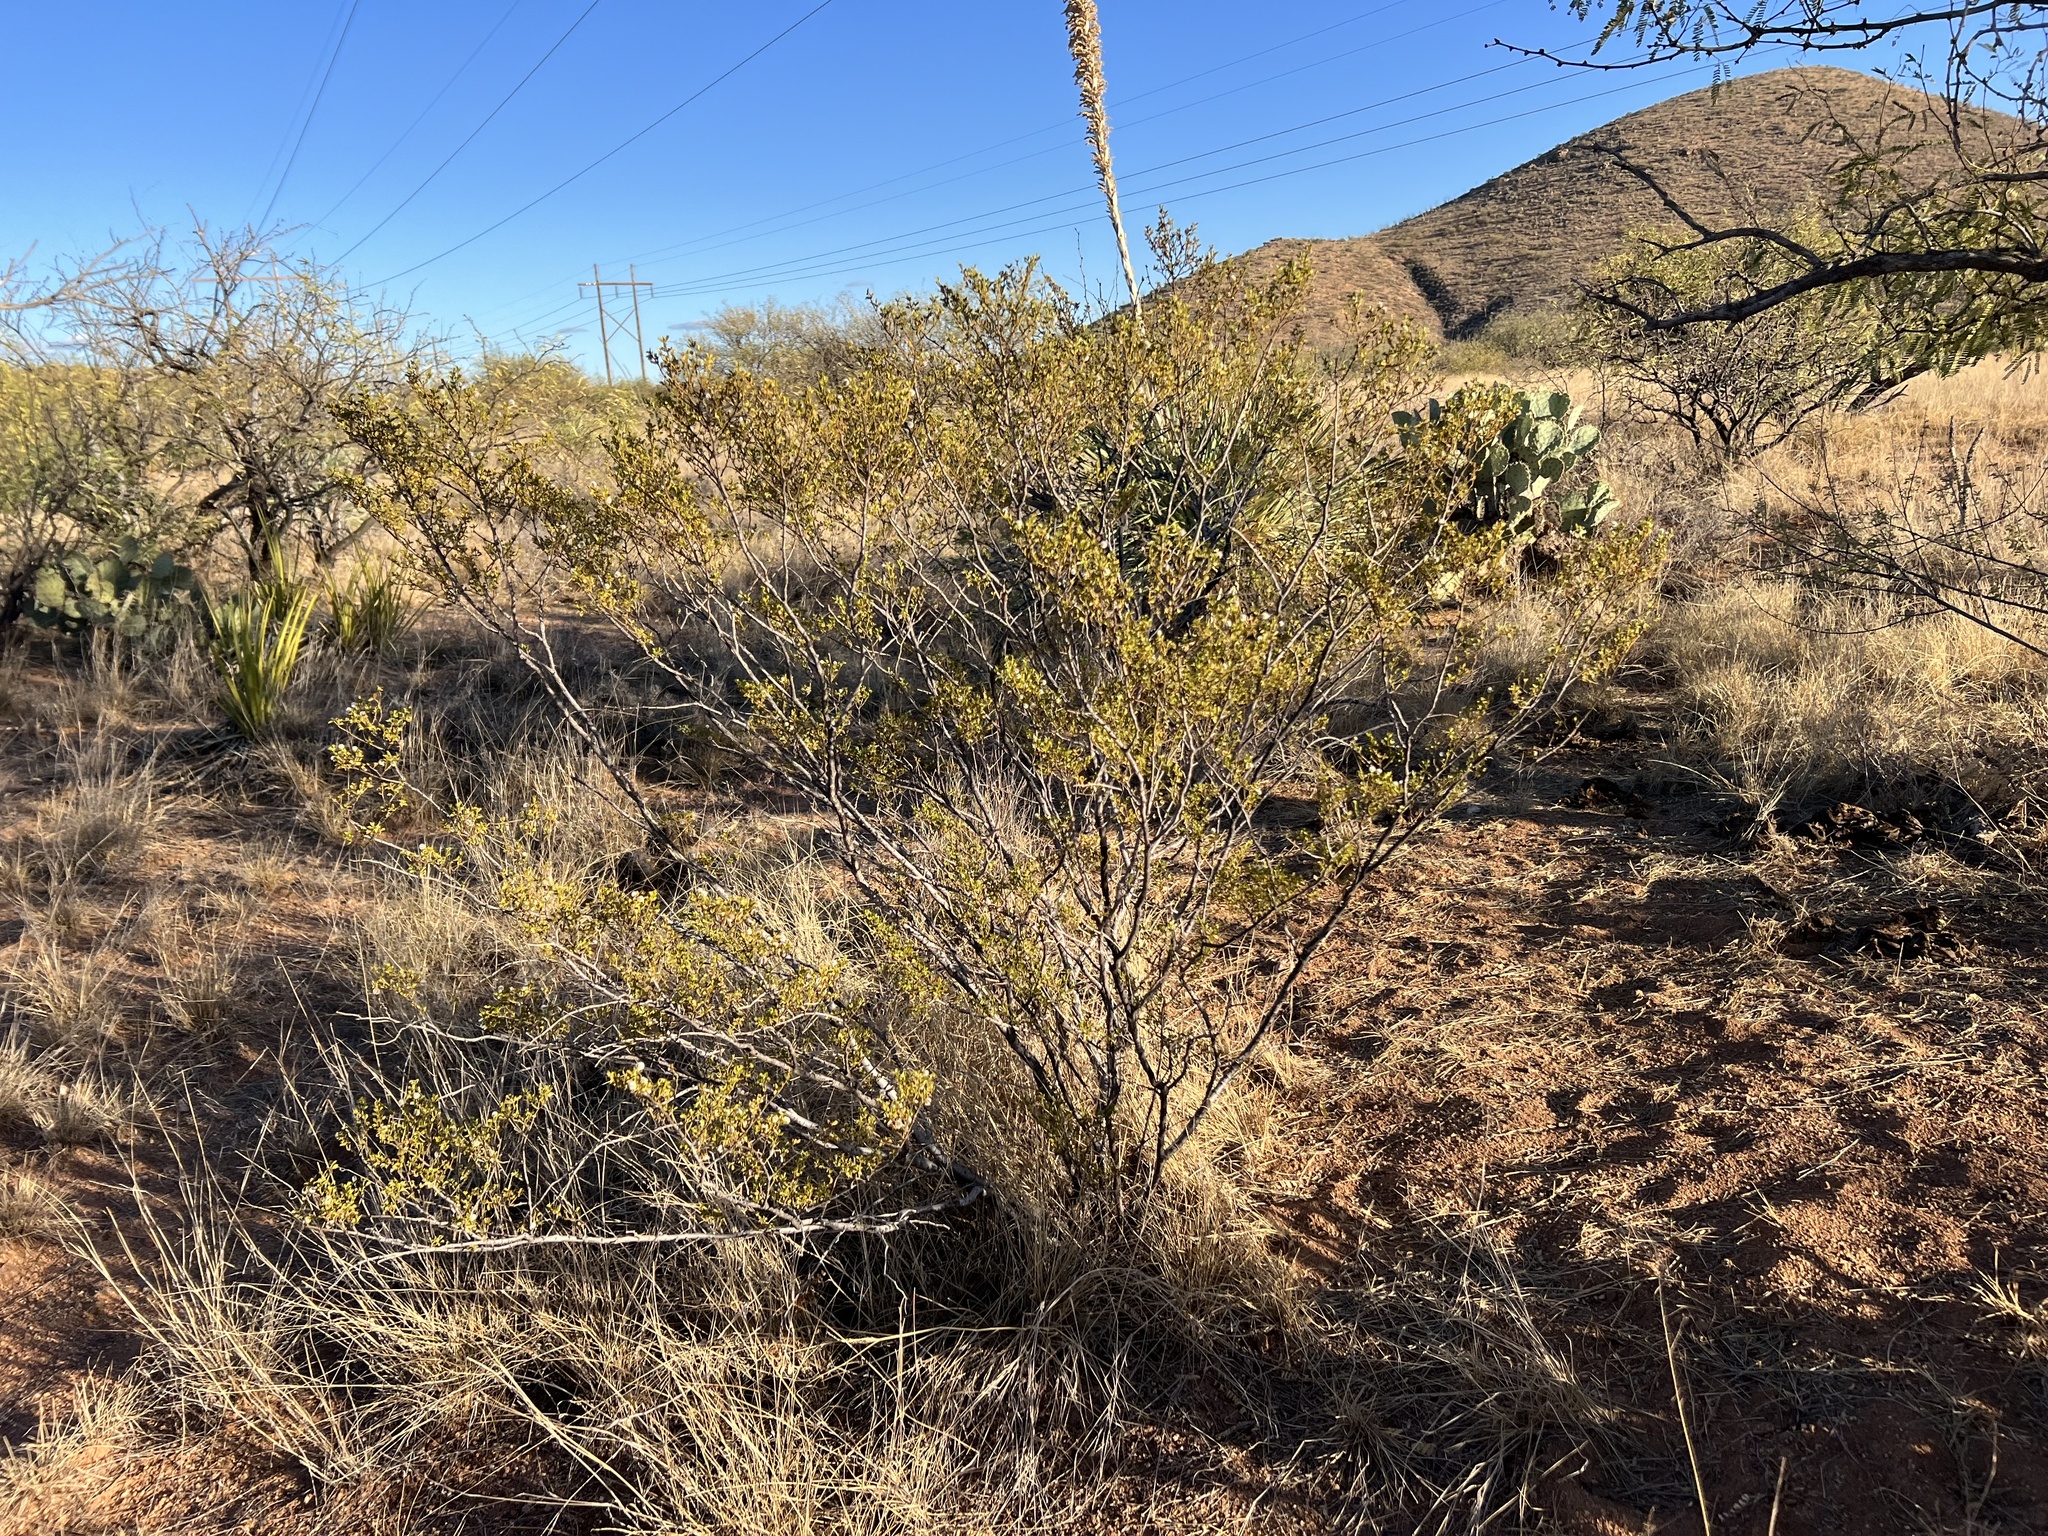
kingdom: Plantae
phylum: Tracheophyta
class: Magnoliopsida
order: Zygophyllales
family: Zygophyllaceae
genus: Larrea
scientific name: Larrea tridentata
